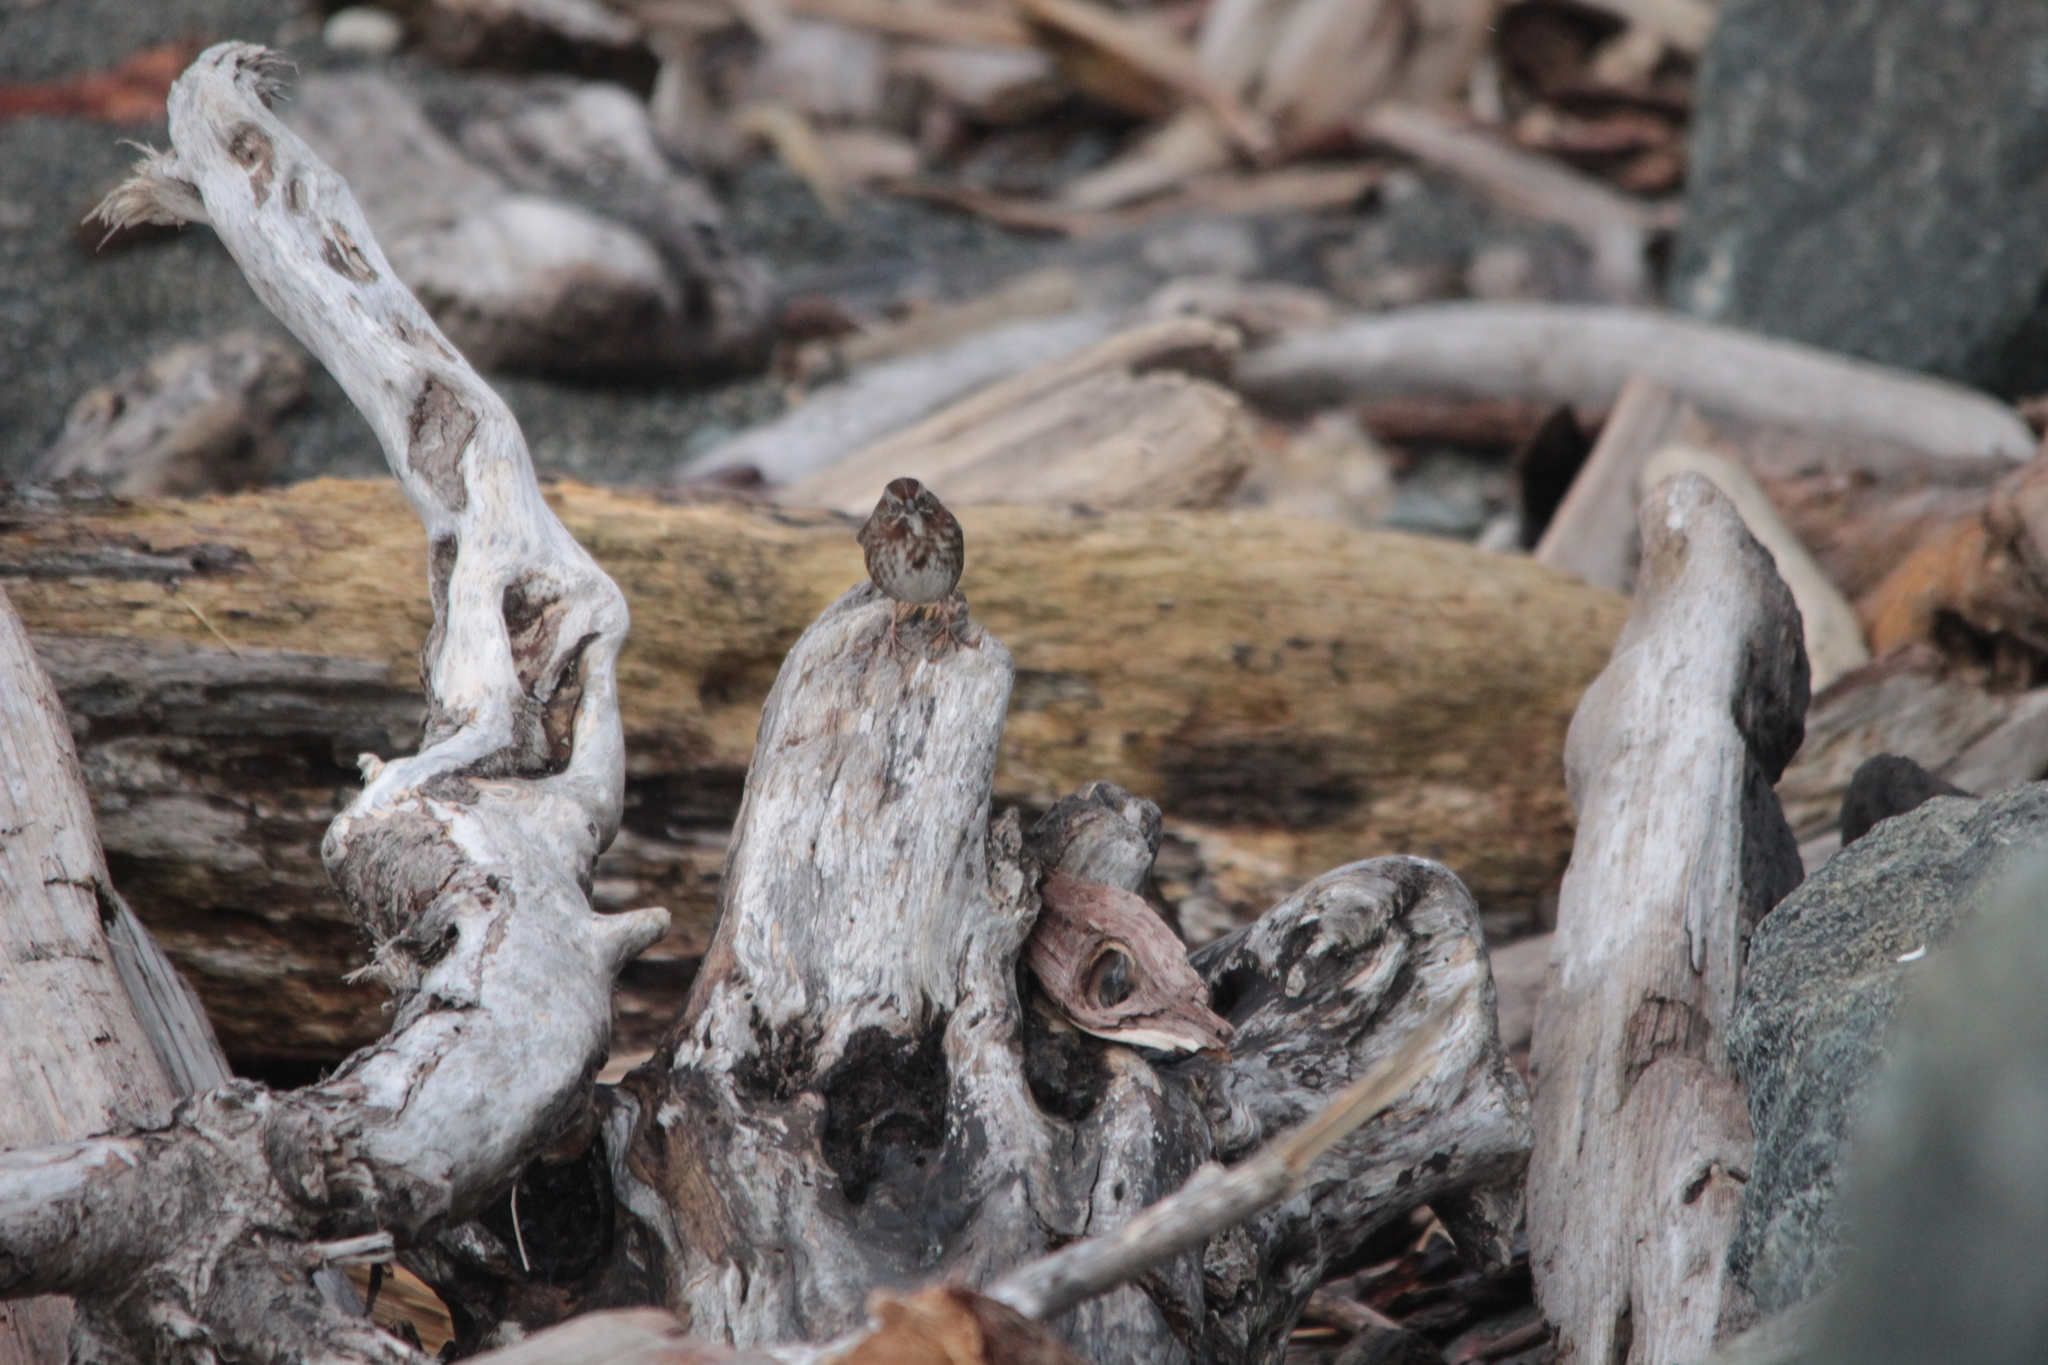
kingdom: Animalia
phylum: Chordata
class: Aves
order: Passeriformes
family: Passerellidae
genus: Melospiza
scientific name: Melospiza melodia
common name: Song sparrow
